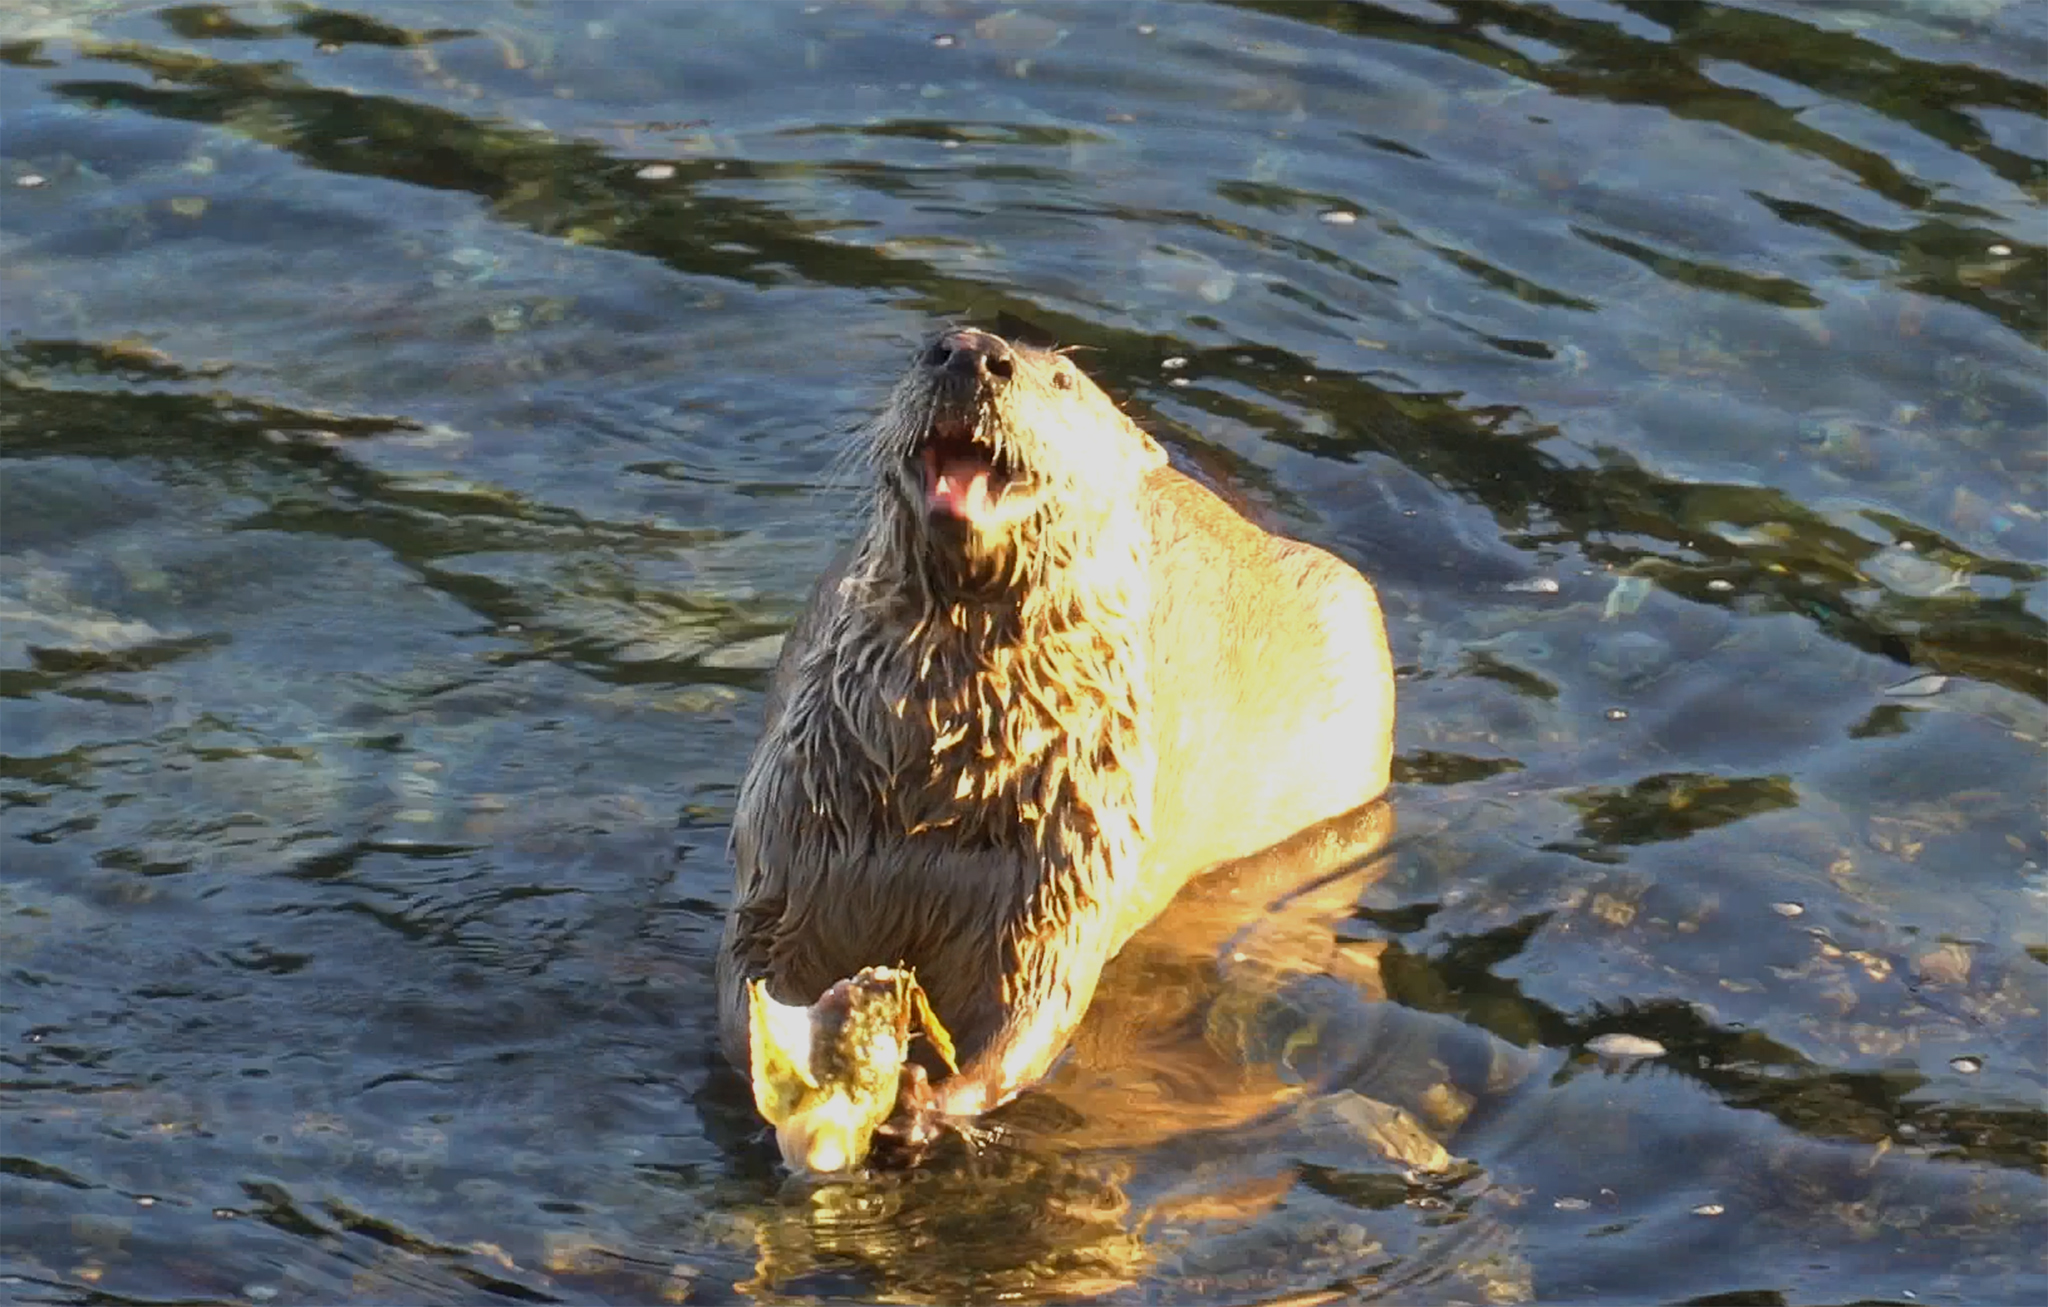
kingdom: Animalia
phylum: Chordata
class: Mammalia
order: Carnivora
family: Mustelidae
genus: Lontra
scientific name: Lontra canadensis
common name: North american river otter
